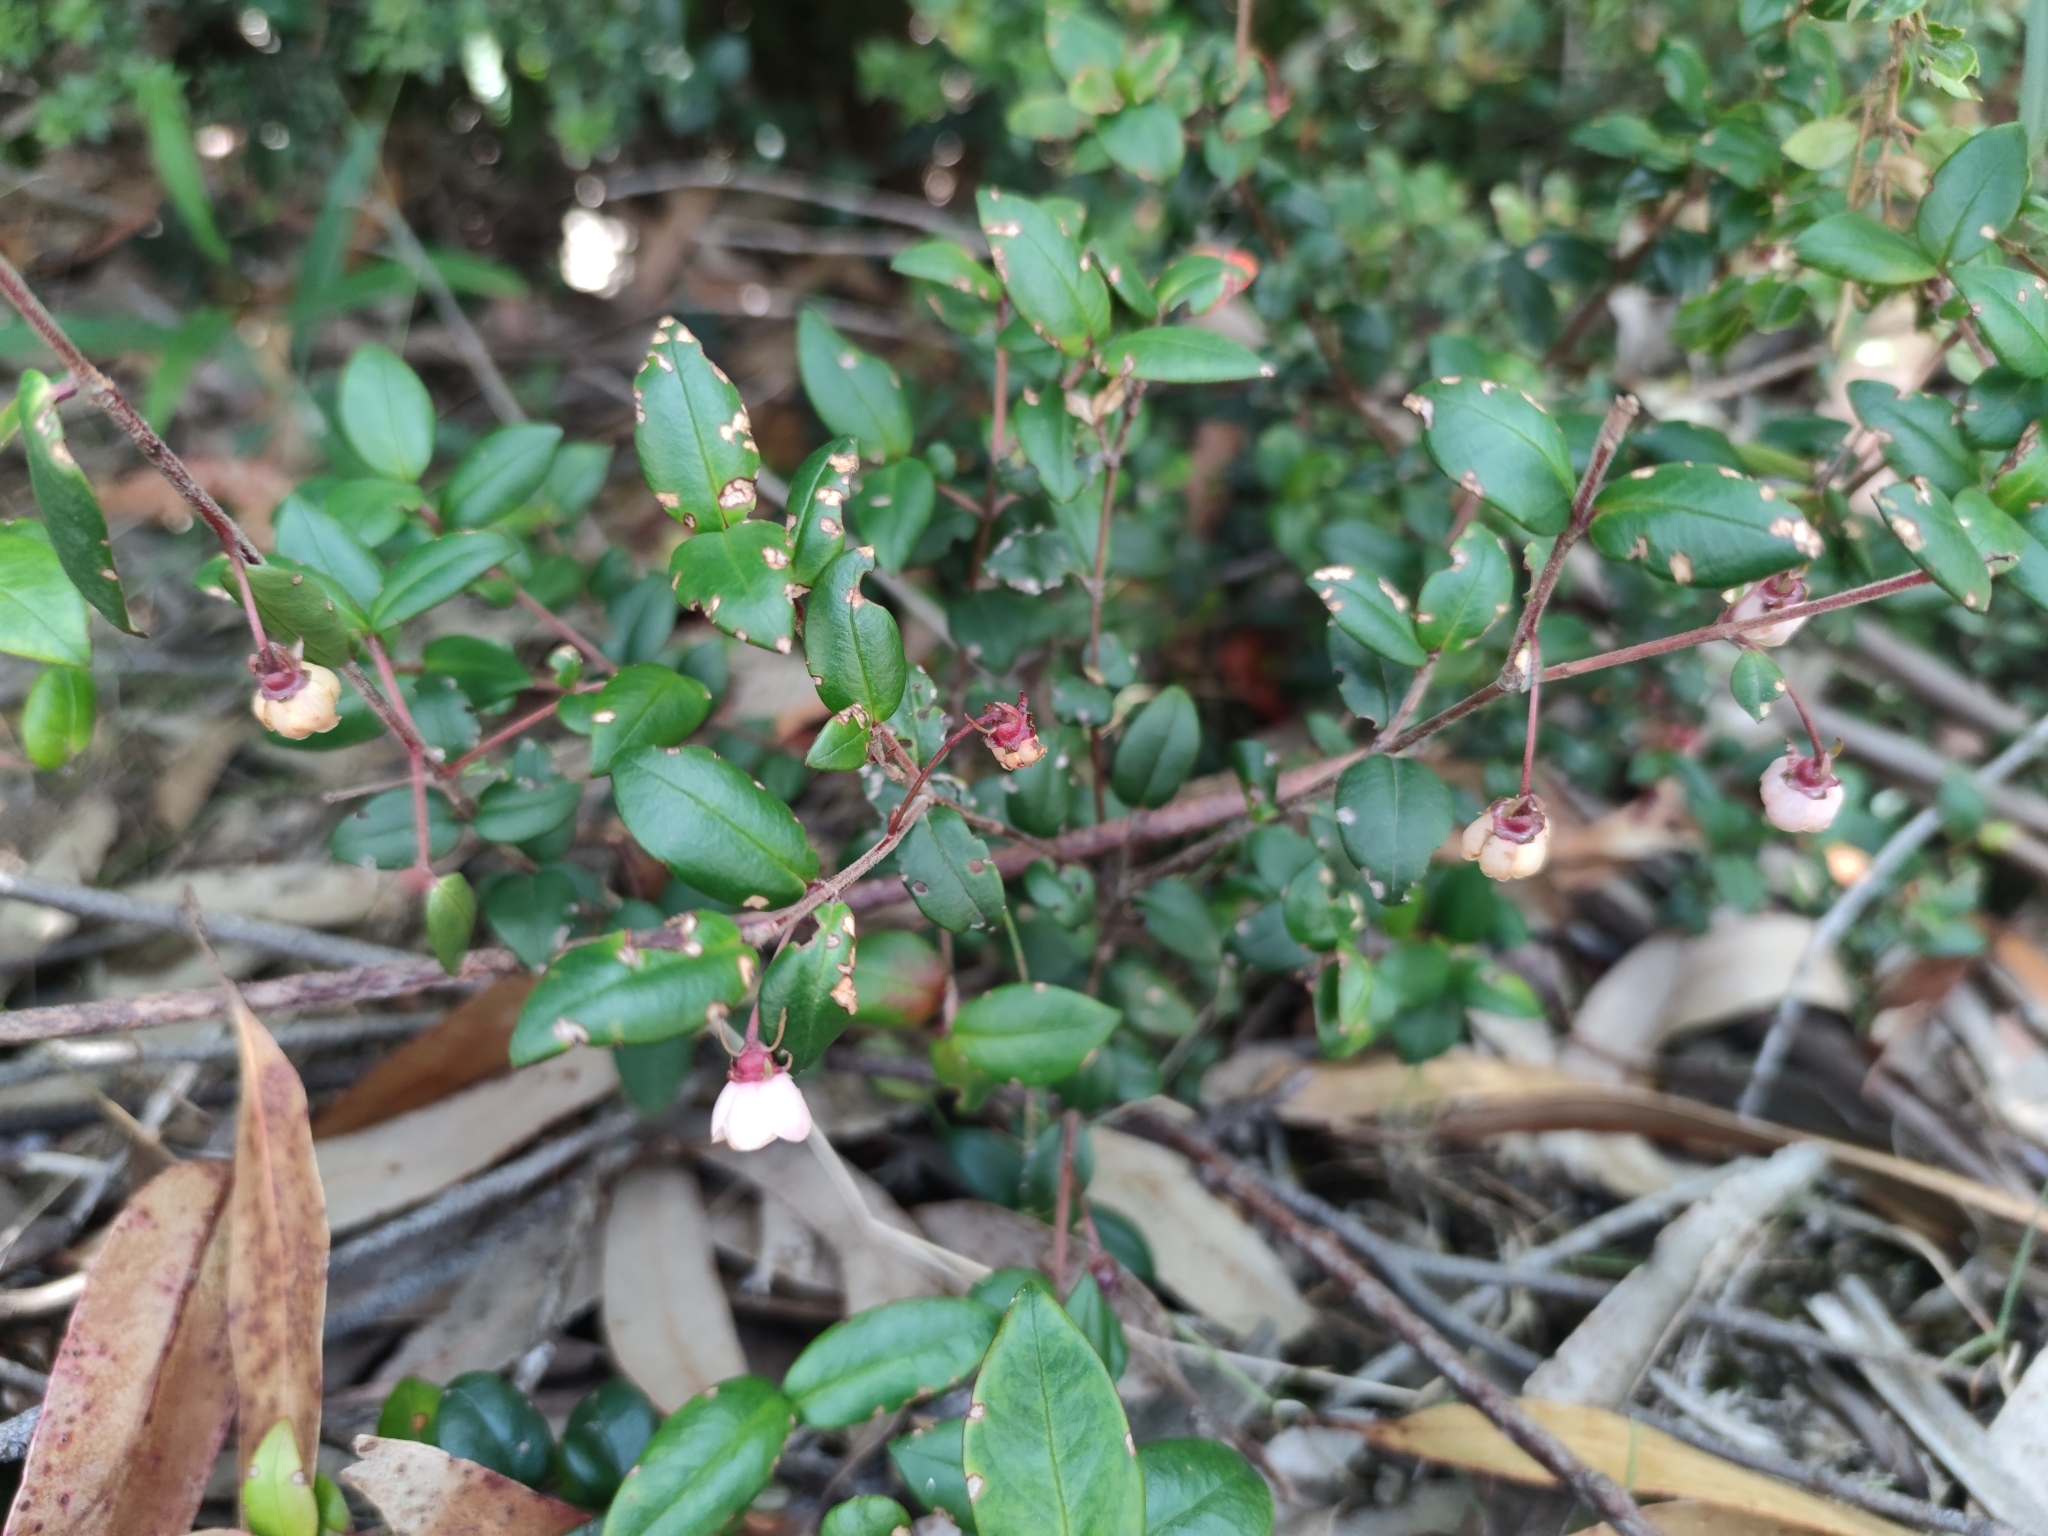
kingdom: Plantae
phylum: Tracheophyta
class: Magnoliopsida
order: Myrtales
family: Myrtaceae
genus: Ugni
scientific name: Ugni molinae
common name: Chilean-guava
